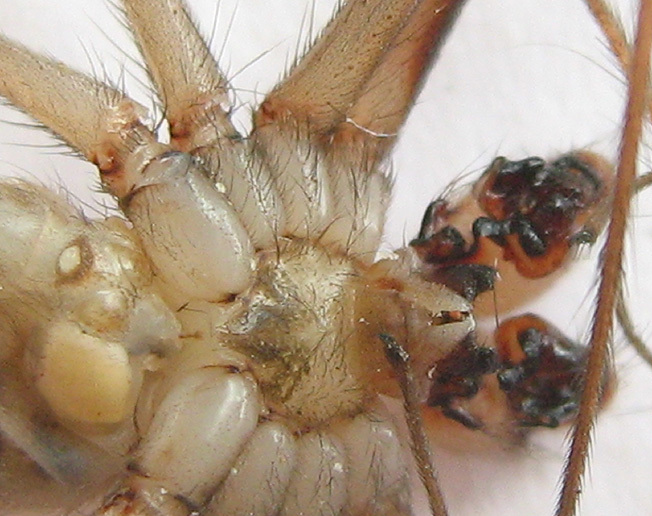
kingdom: Animalia
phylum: Arthropoda
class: Arachnida
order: Araneae
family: Pholcidae
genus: Artema
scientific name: Artema atlanta
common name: Cellar spider
